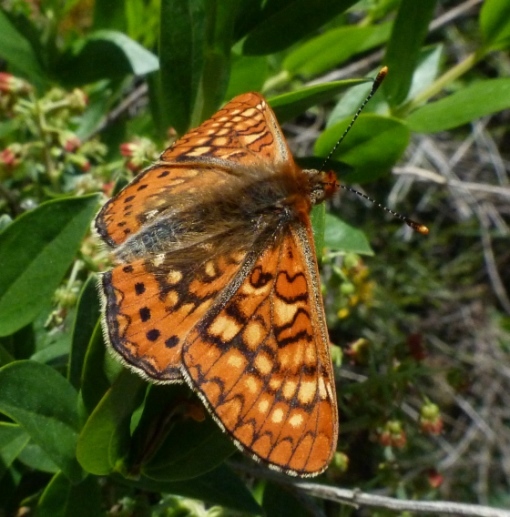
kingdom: Animalia
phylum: Arthropoda
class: Insecta
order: Lepidoptera
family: Nymphalidae
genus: Euphydryas
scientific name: Euphydryas aurinia
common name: Marsh fritillary
